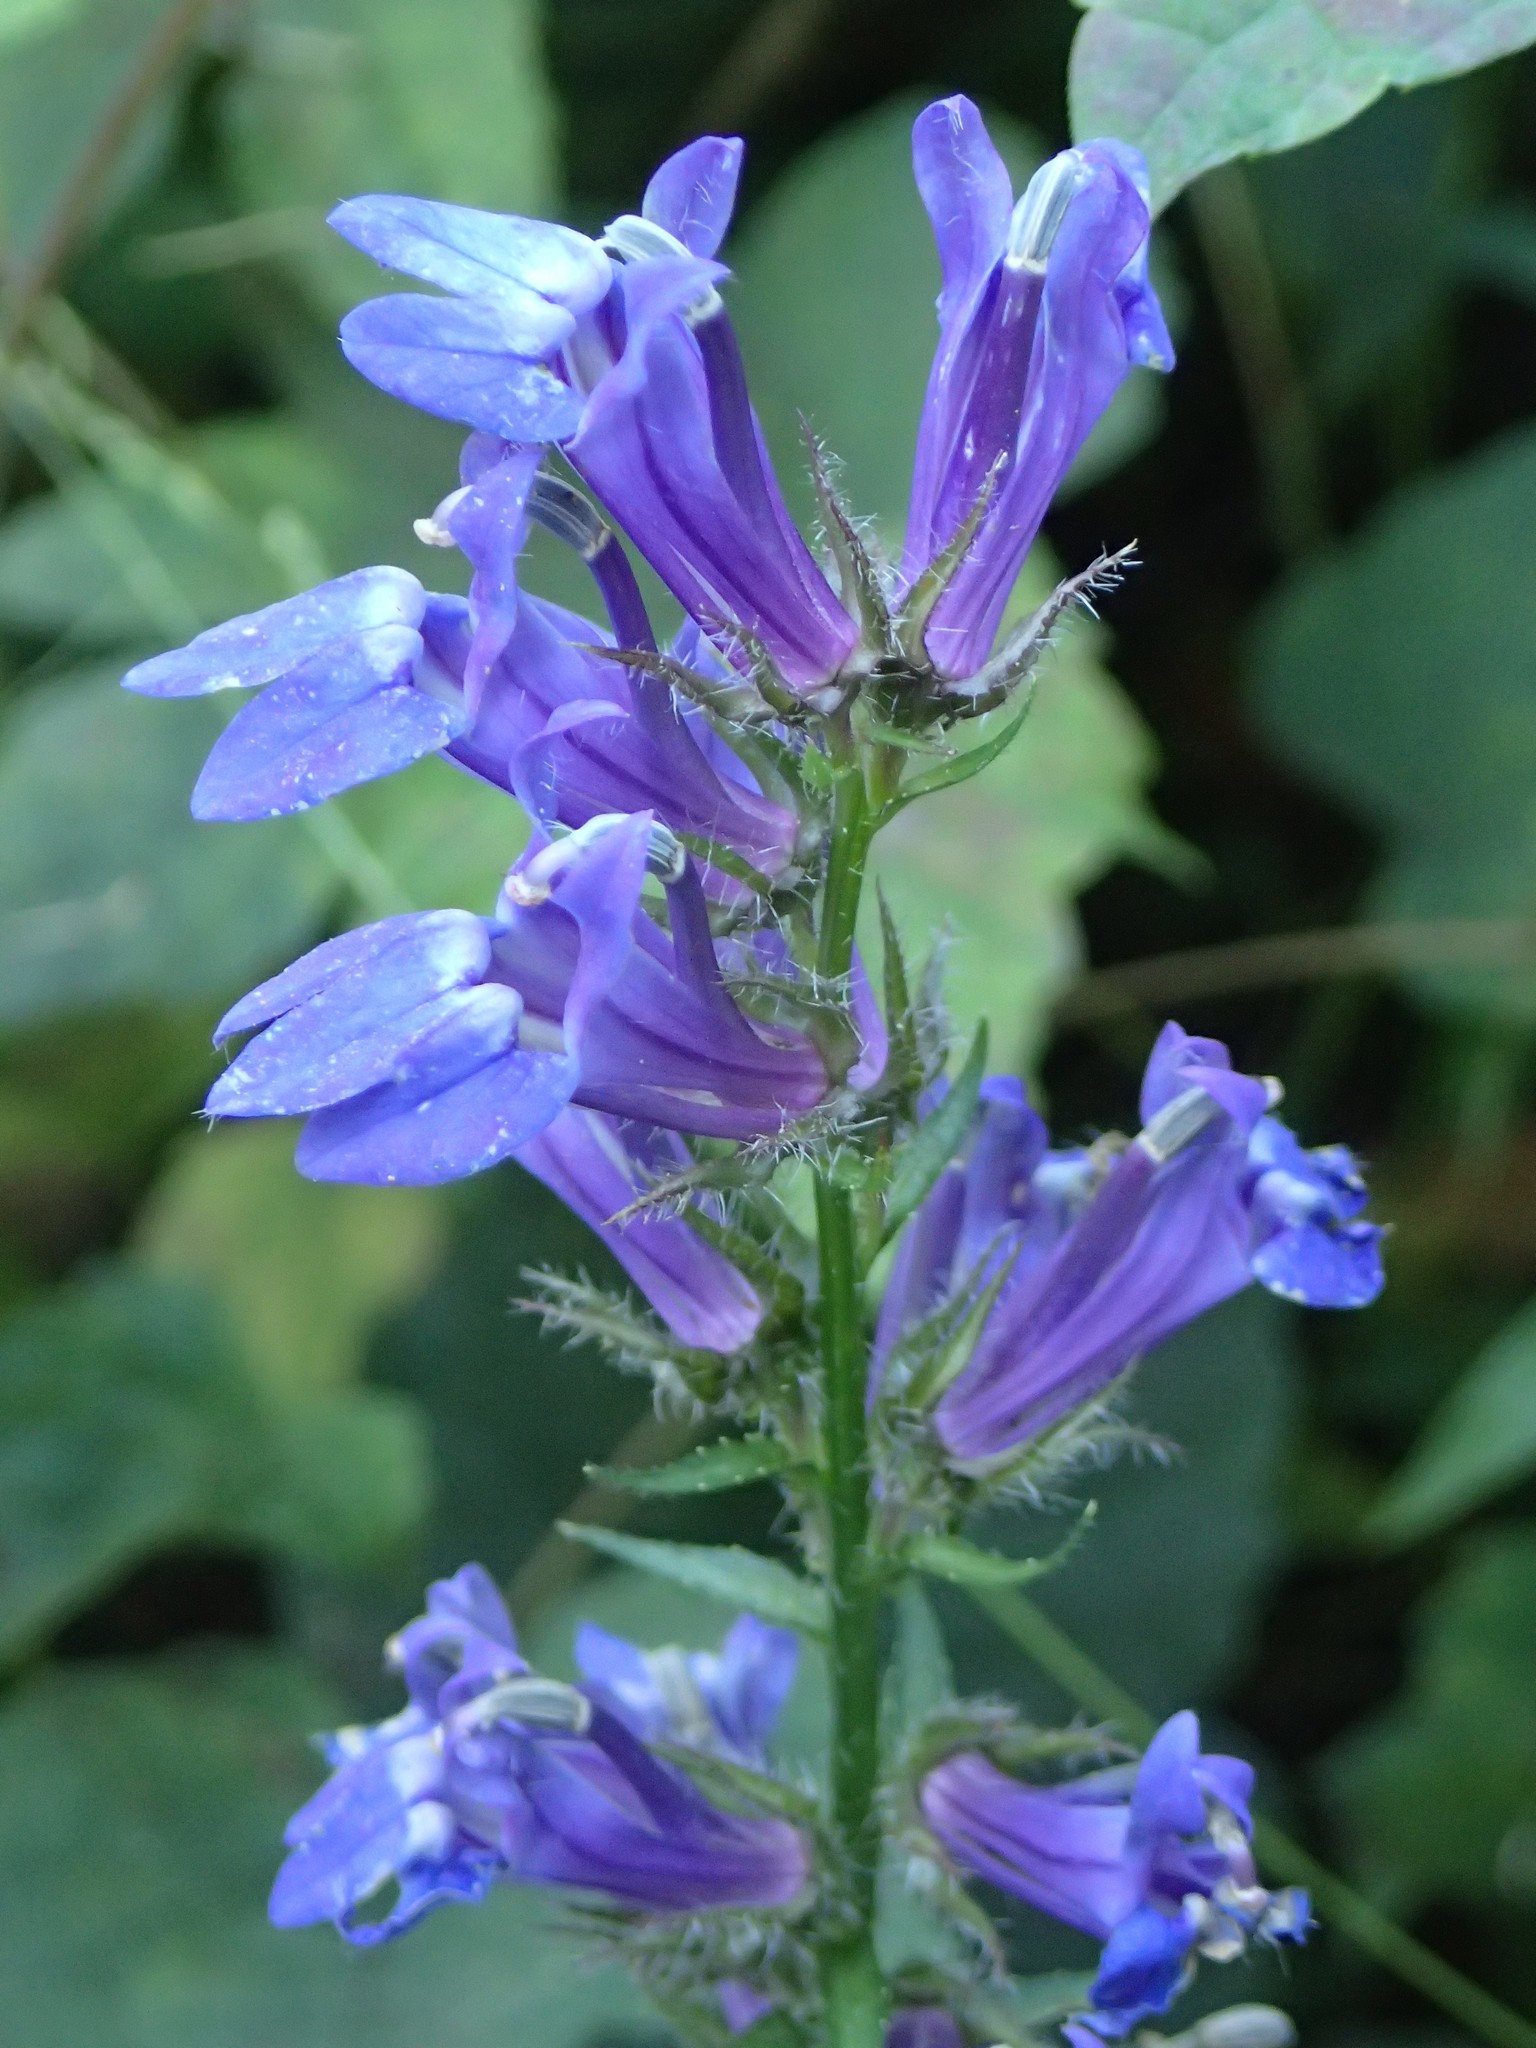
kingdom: Plantae
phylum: Tracheophyta
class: Magnoliopsida
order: Asterales
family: Campanulaceae
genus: Lobelia
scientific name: Lobelia siphilitica
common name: Great lobelia
